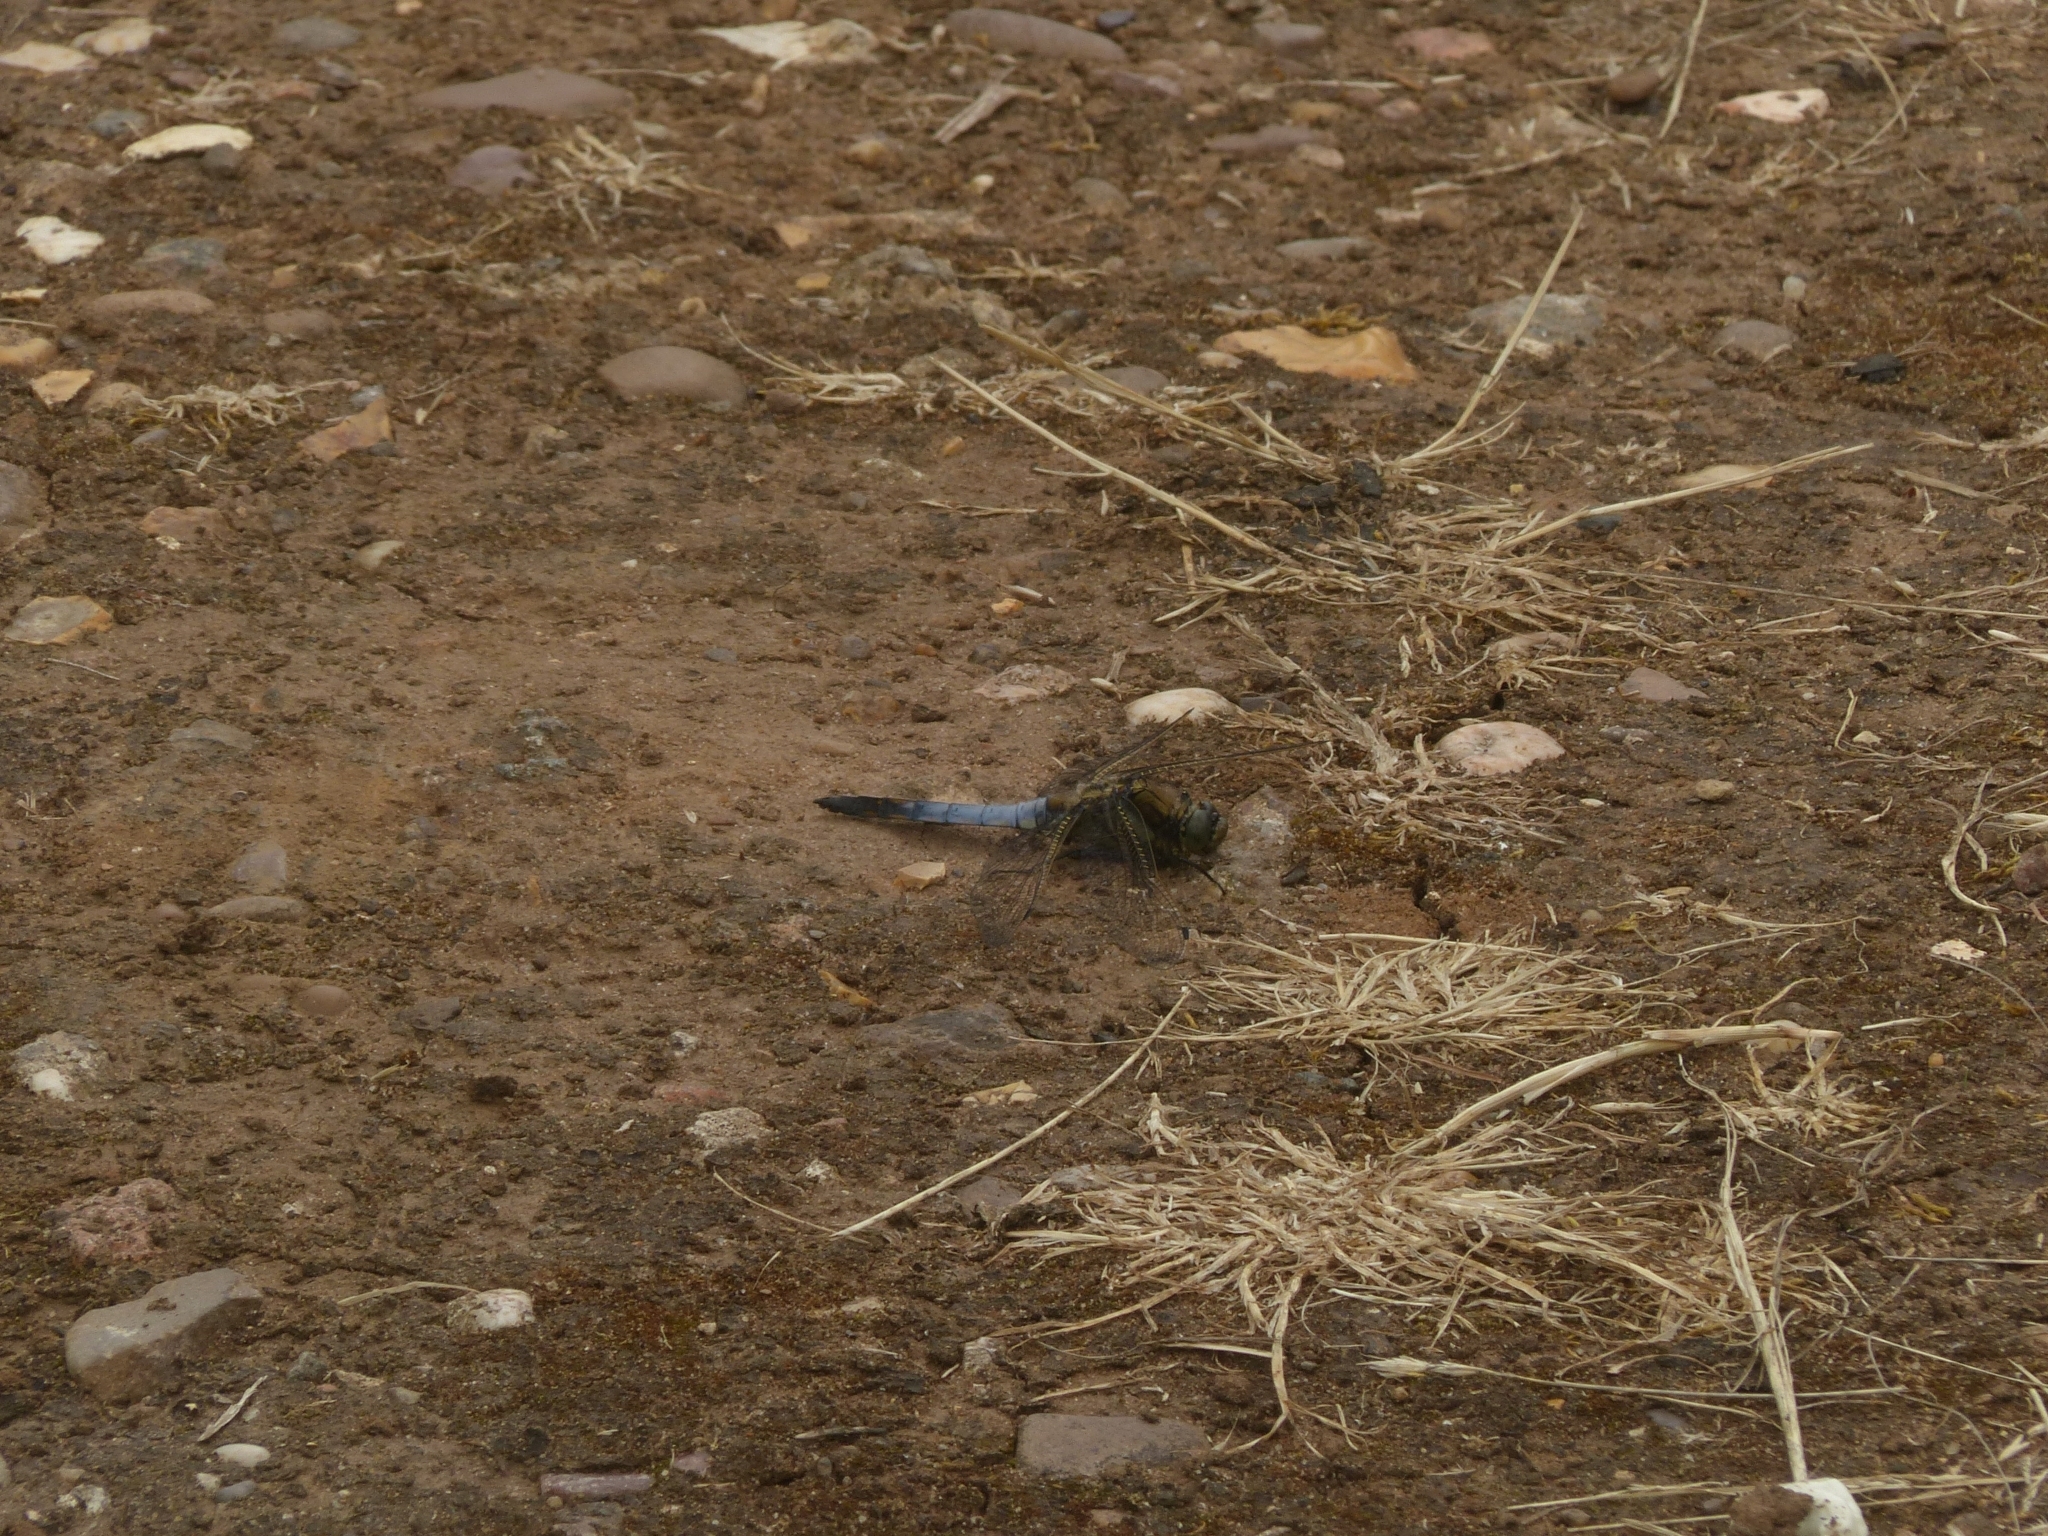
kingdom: Animalia
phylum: Arthropoda
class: Insecta
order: Odonata
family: Libellulidae
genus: Orthetrum
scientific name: Orthetrum cancellatum
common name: Black-tailed skimmer
